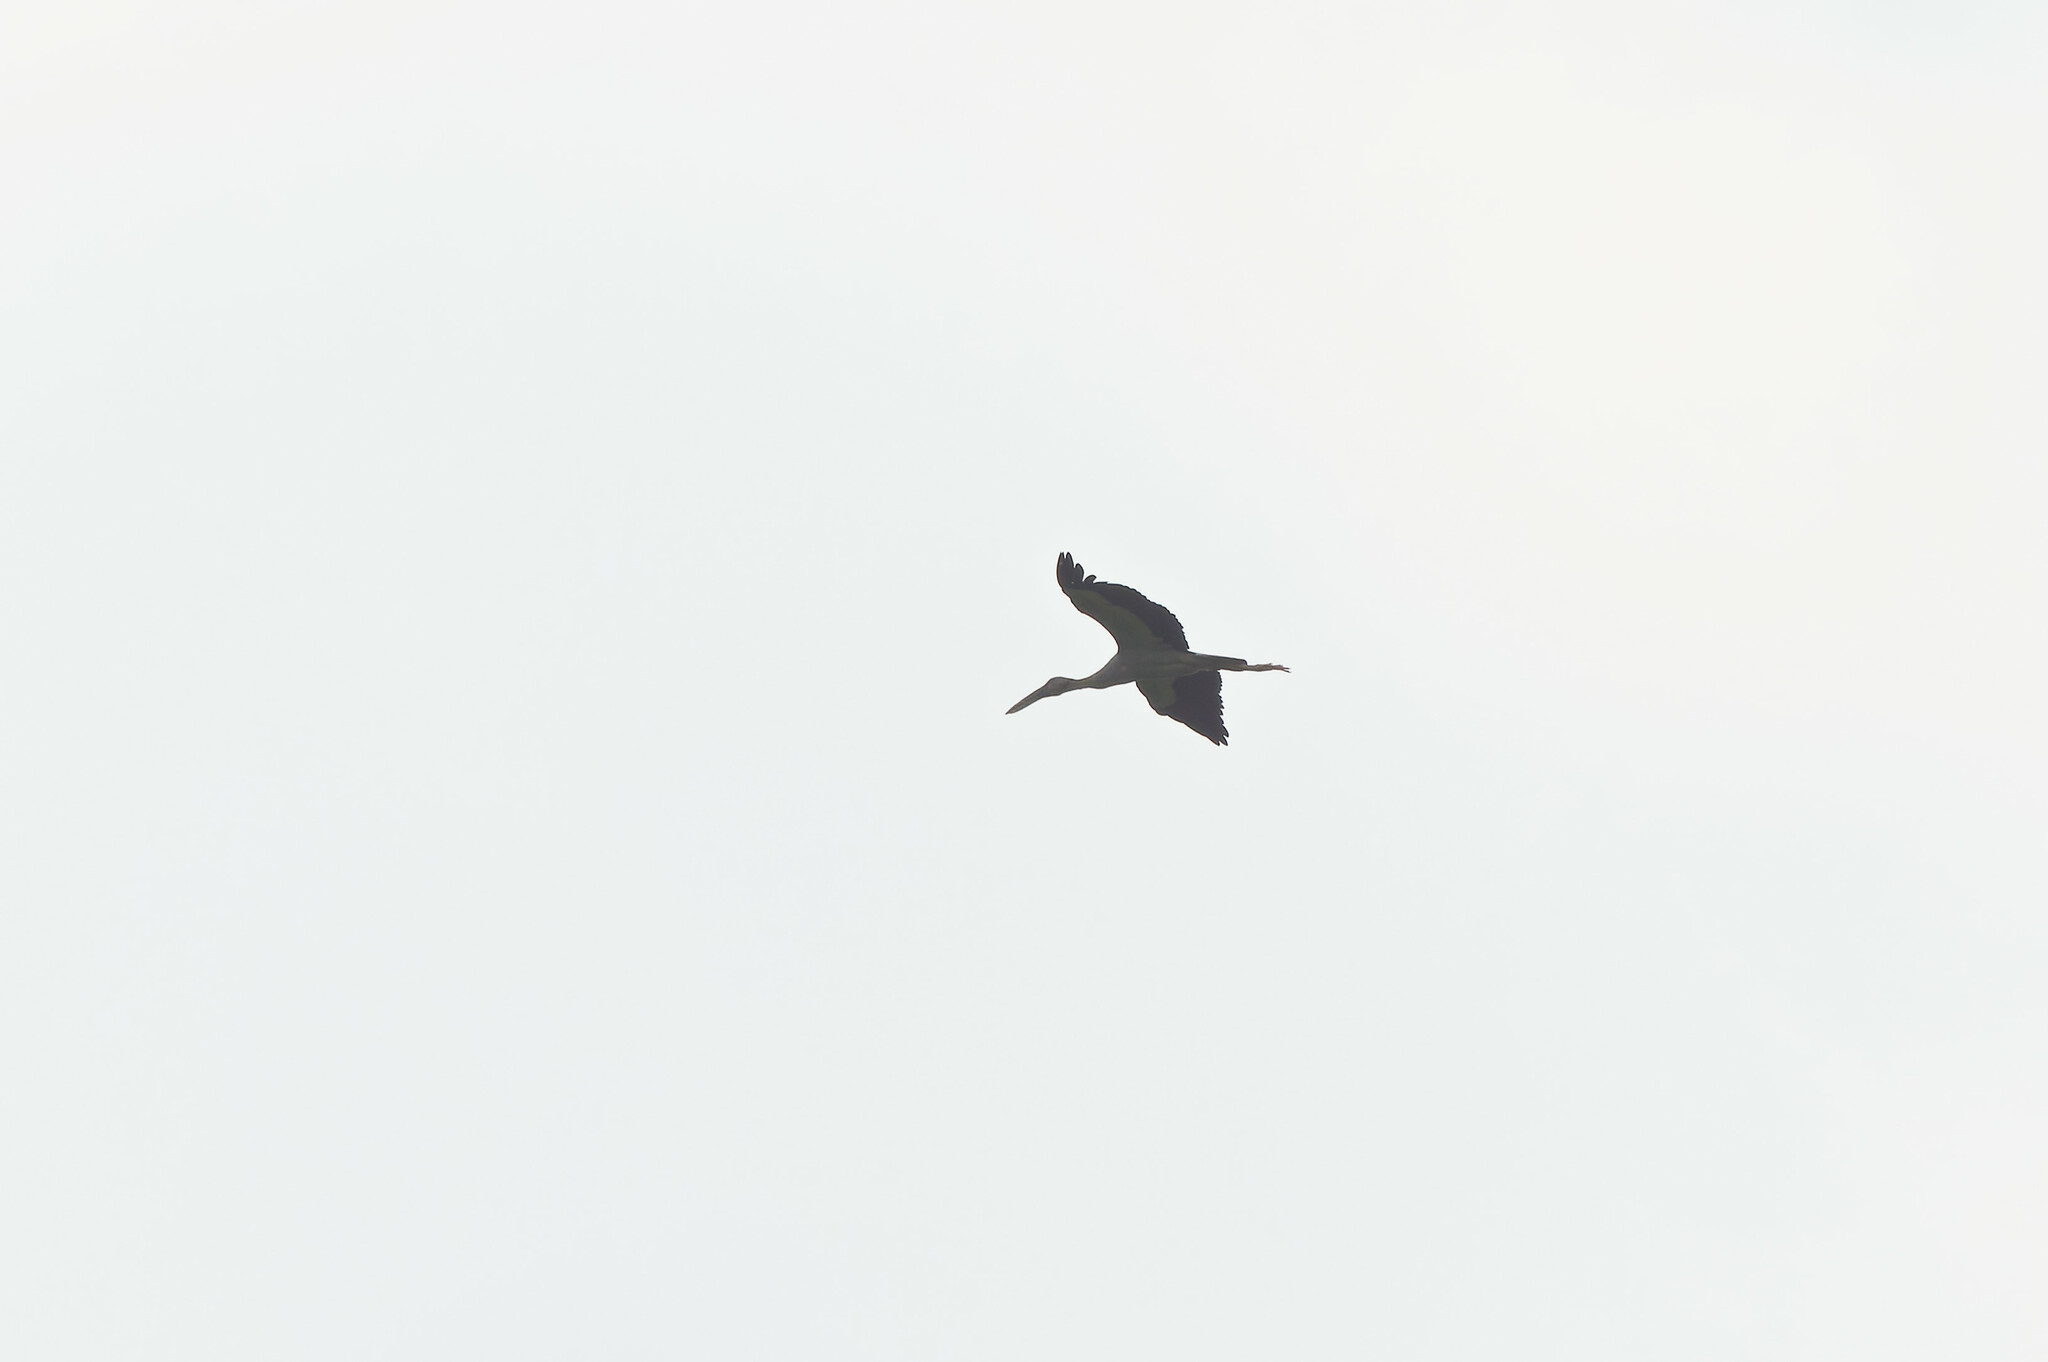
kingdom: Animalia
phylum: Chordata
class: Aves
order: Ciconiiformes
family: Ciconiidae
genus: Anastomus
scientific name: Anastomus oscitans
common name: Asian openbill
